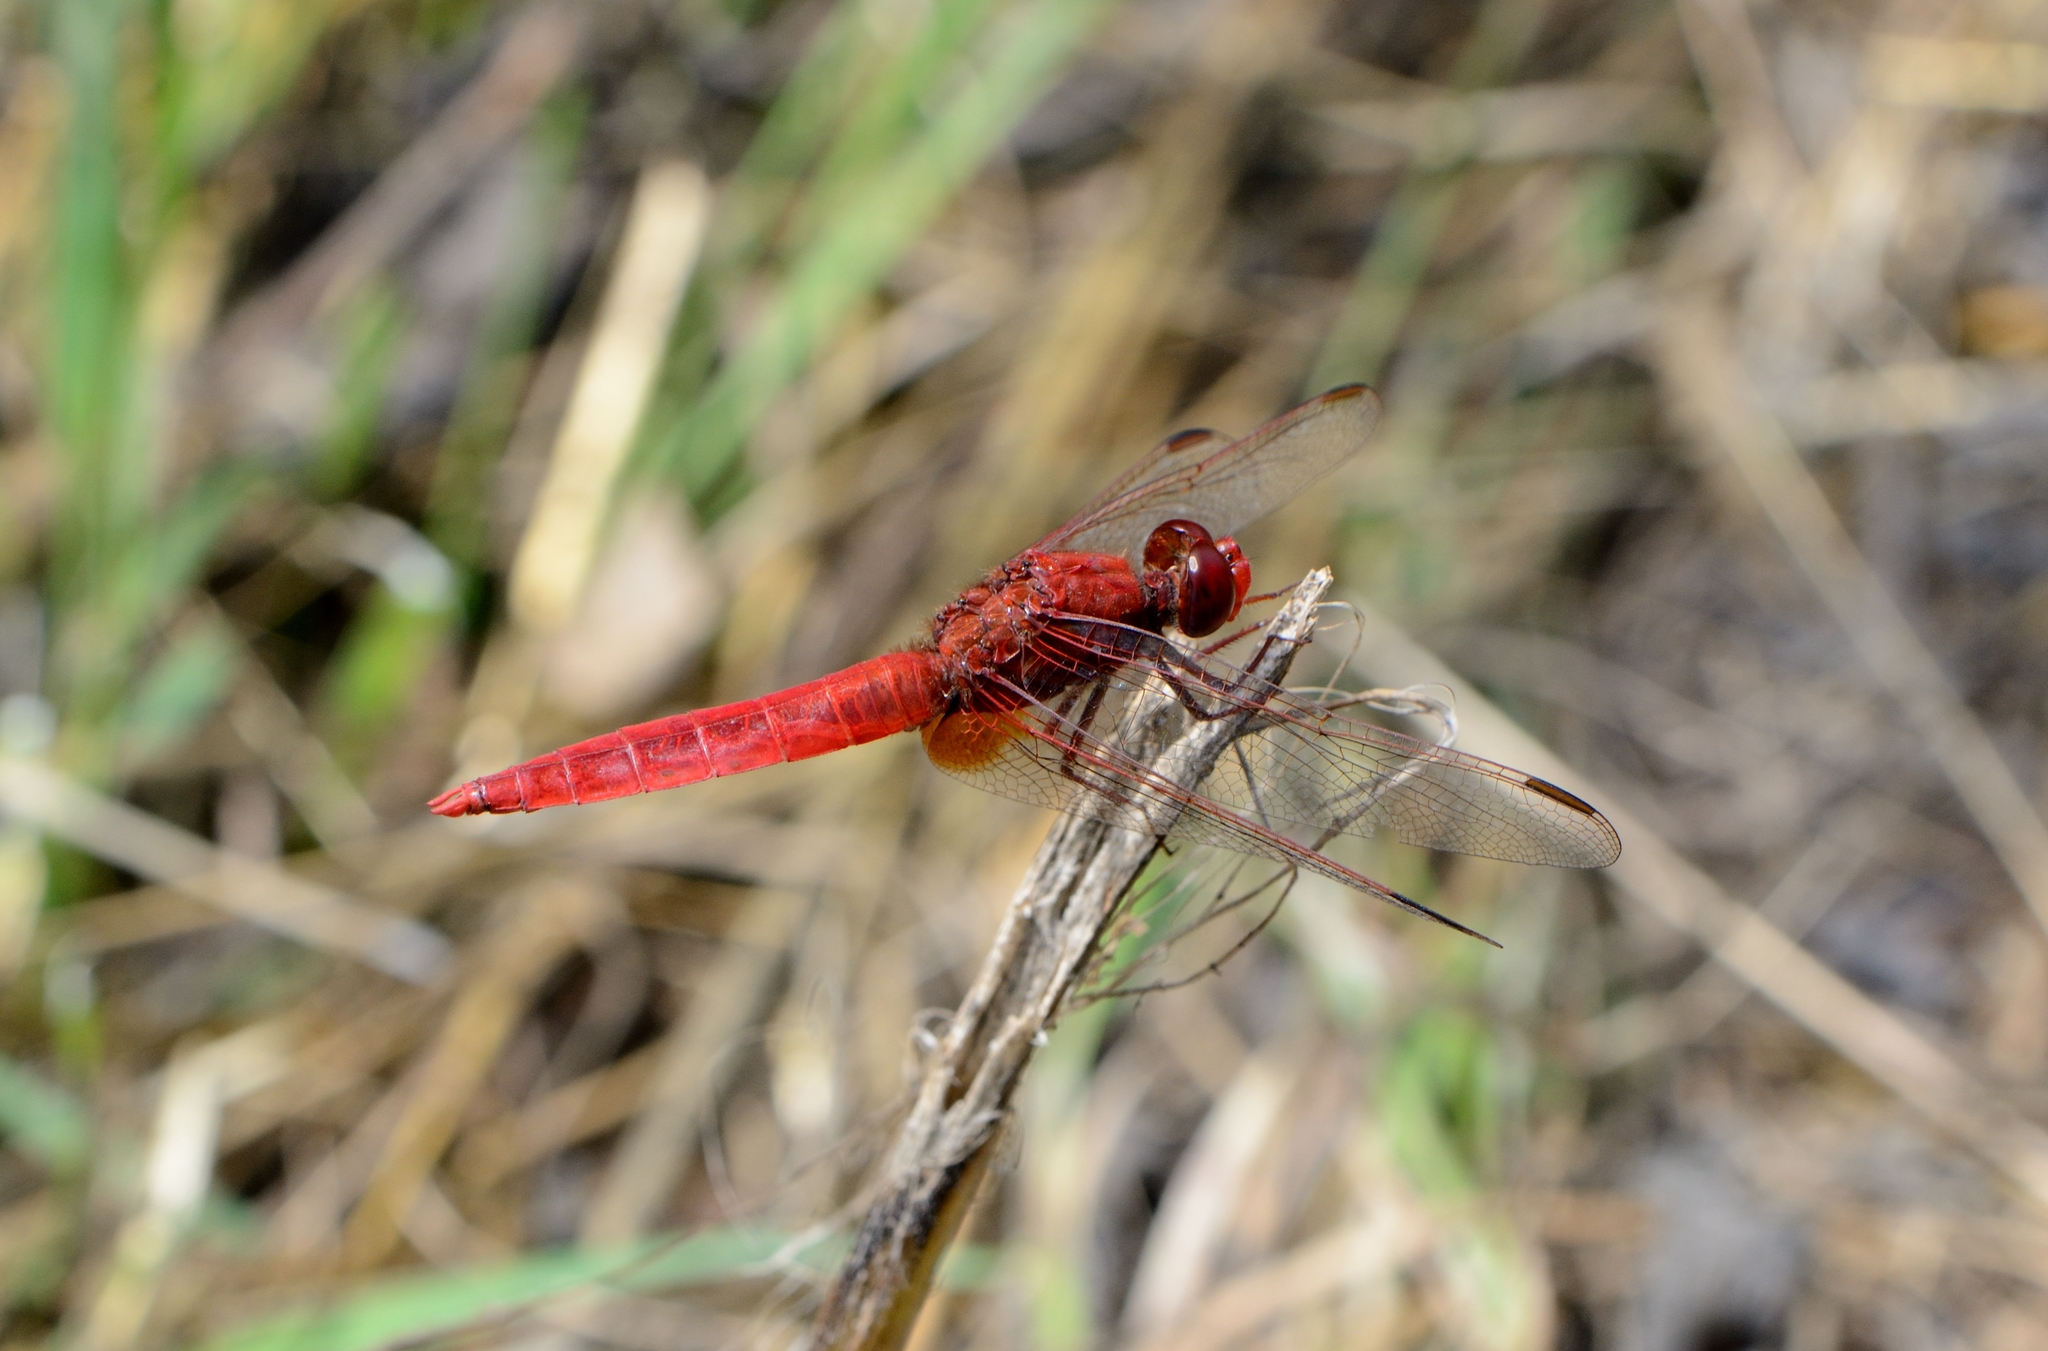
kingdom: Animalia
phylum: Arthropoda
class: Insecta
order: Odonata
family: Libellulidae
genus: Crocothemis
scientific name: Crocothemis erythraea
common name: Scarlet dragonfly
